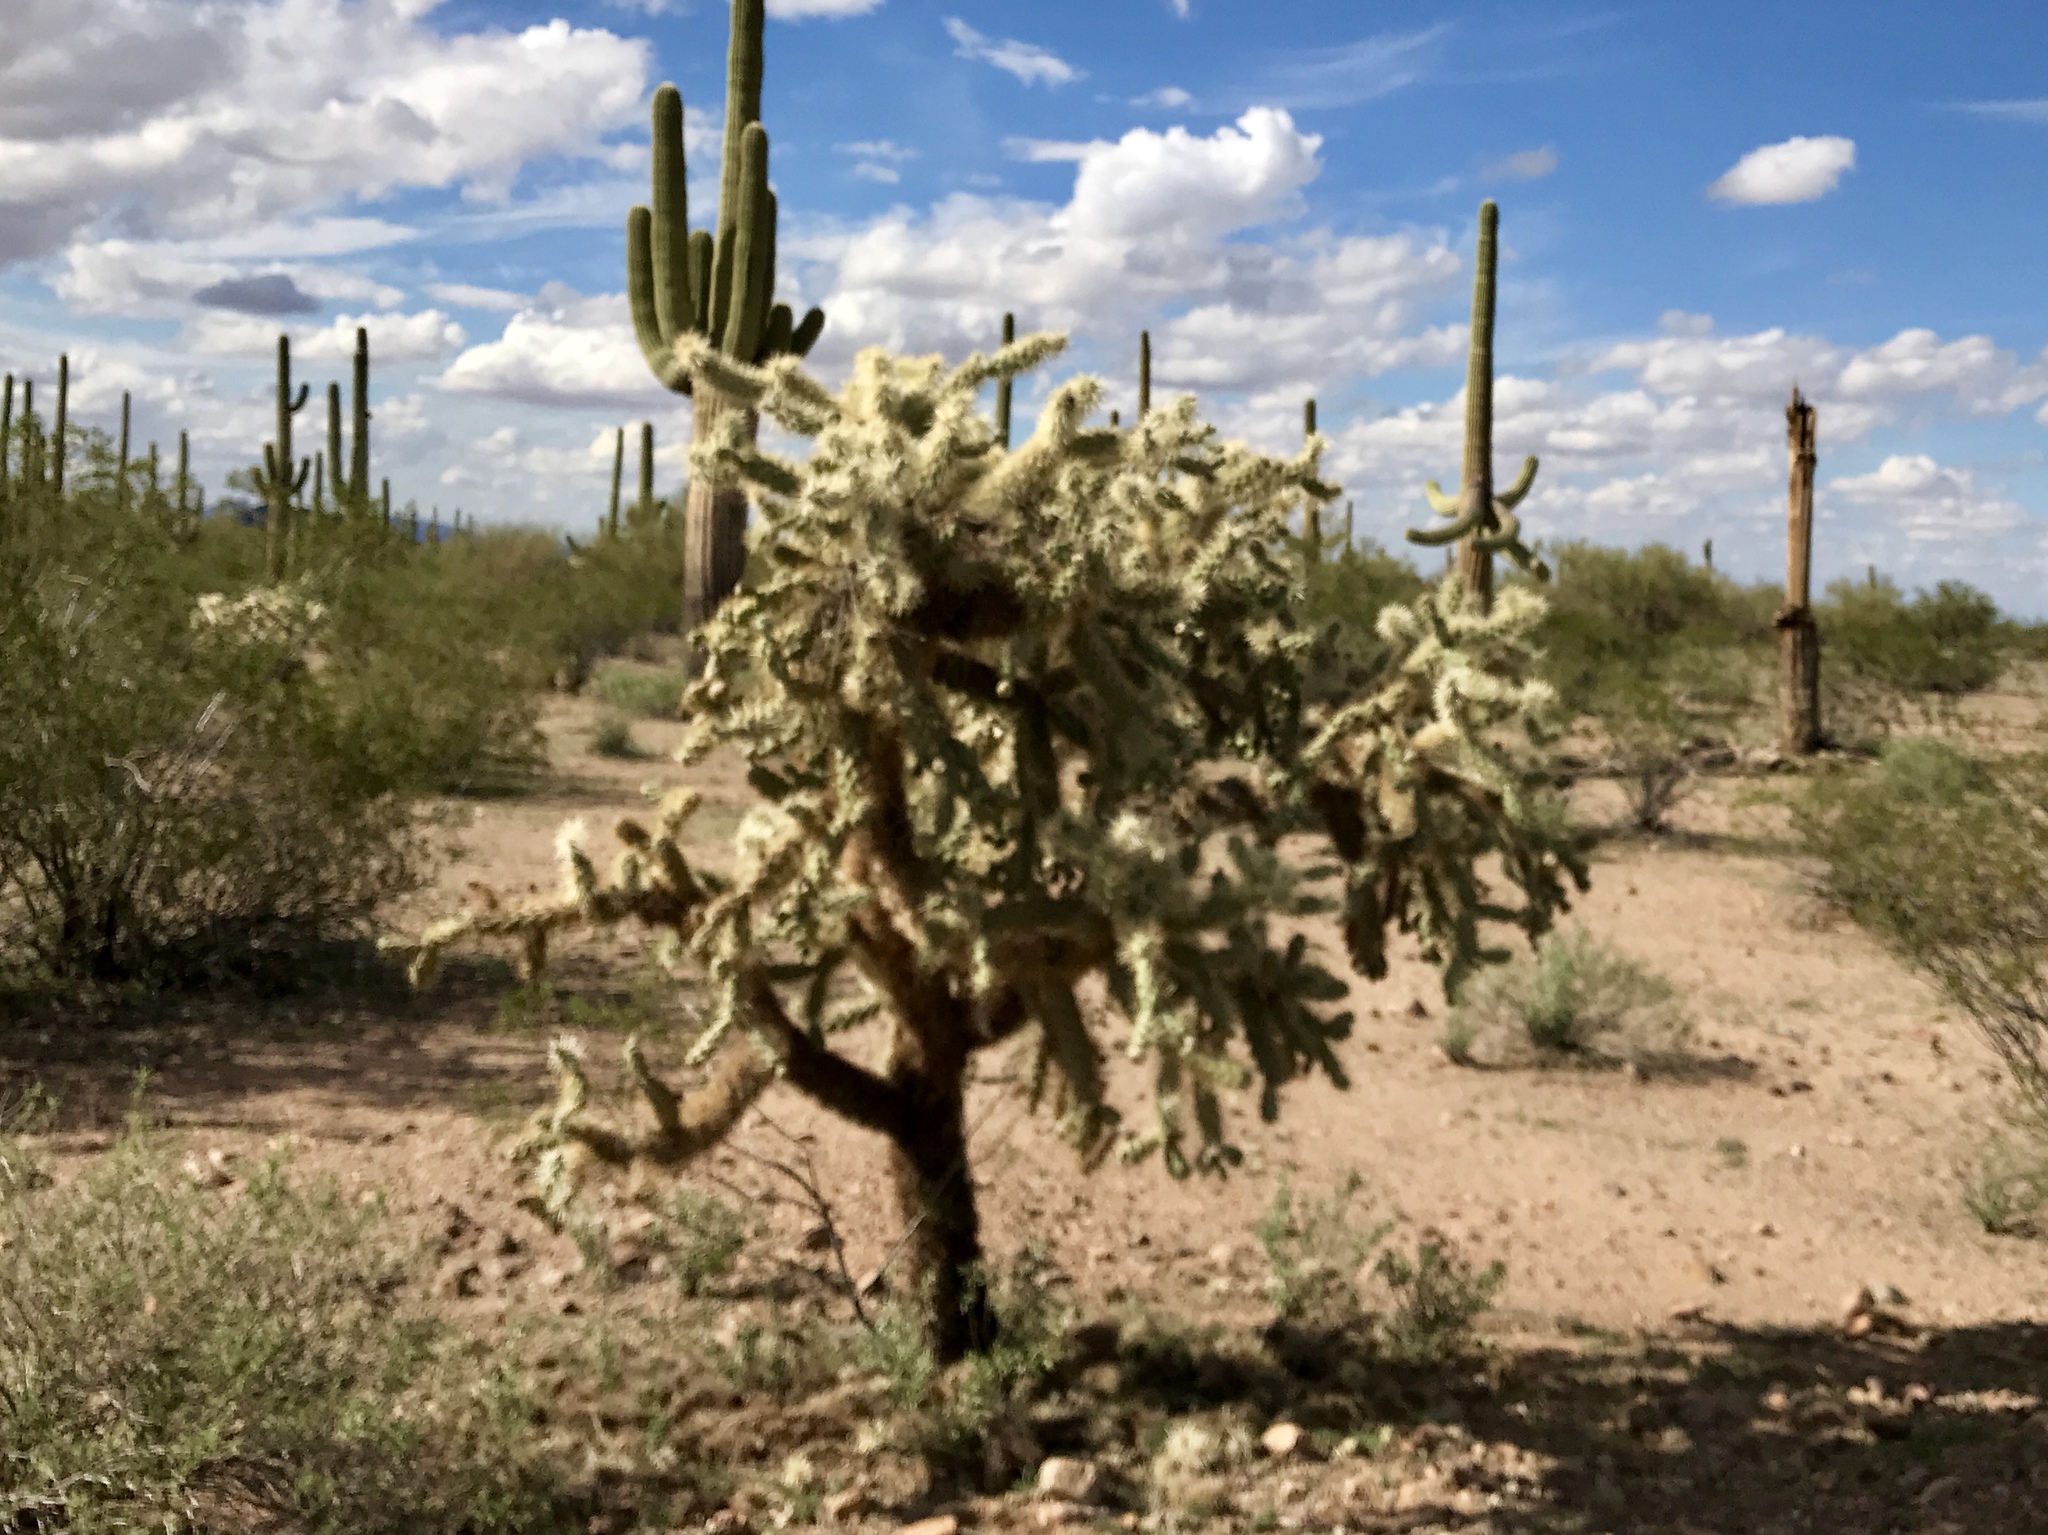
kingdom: Plantae
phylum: Tracheophyta
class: Magnoliopsida
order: Caryophyllales
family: Cactaceae
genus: Cylindropuntia
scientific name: Cylindropuntia fulgida
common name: Jumping cholla
